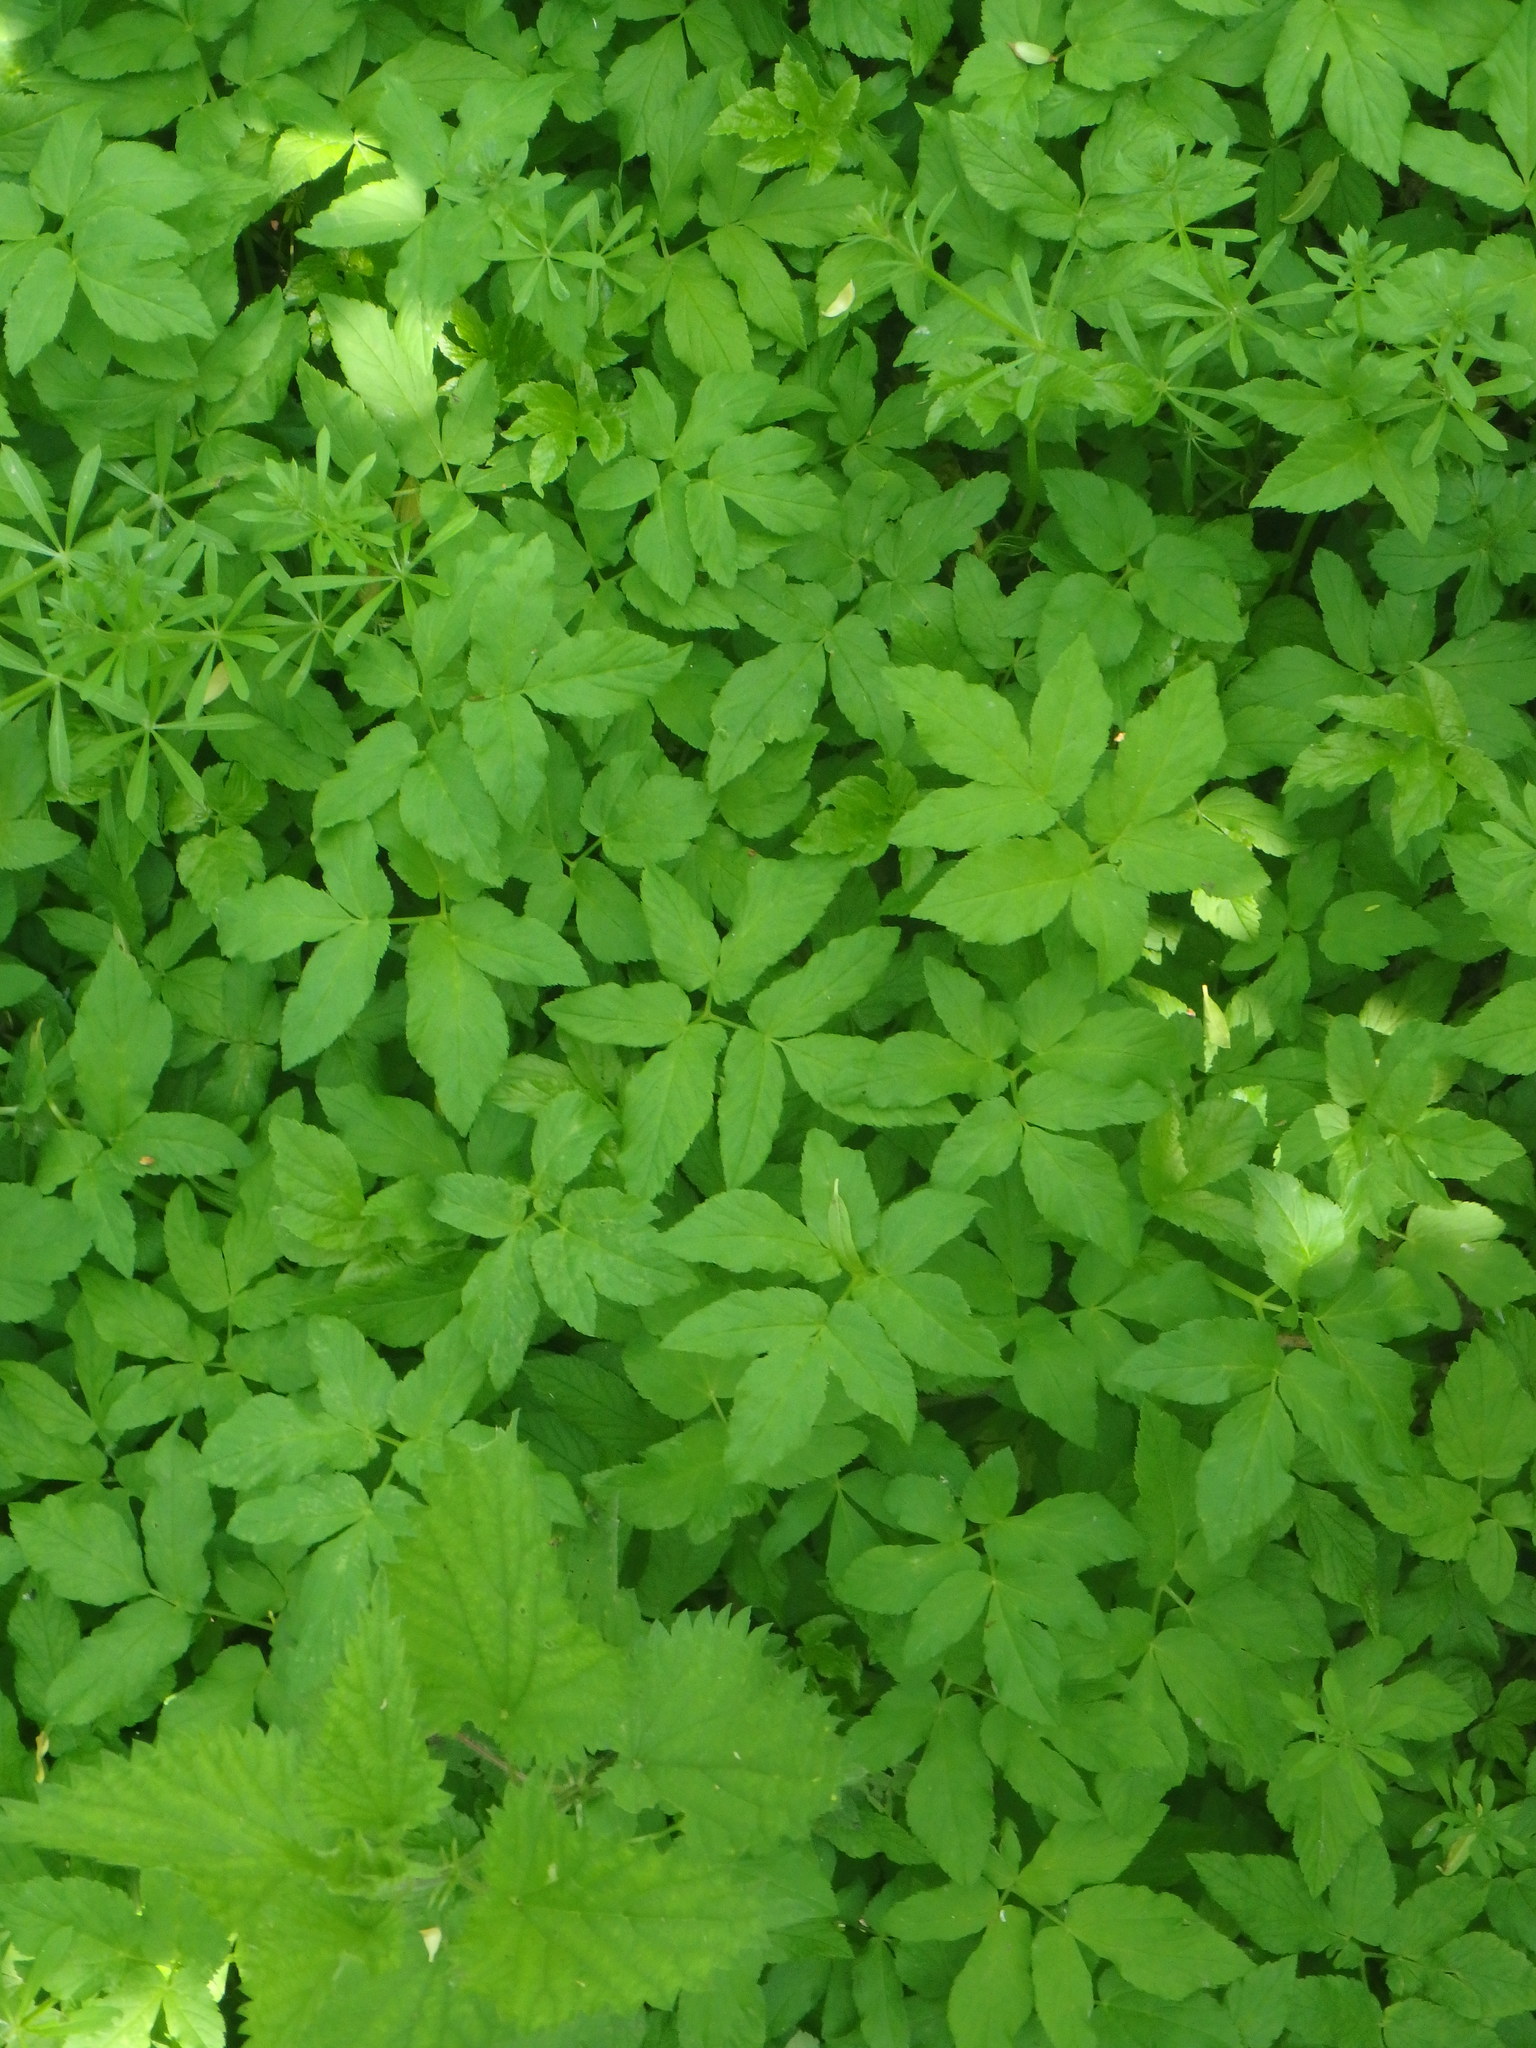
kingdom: Plantae
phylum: Tracheophyta
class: Magnoliopsida
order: Apiales
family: Apiaceae
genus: Aegopodium
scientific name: Aegopodium podagraria
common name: Ground-elder
